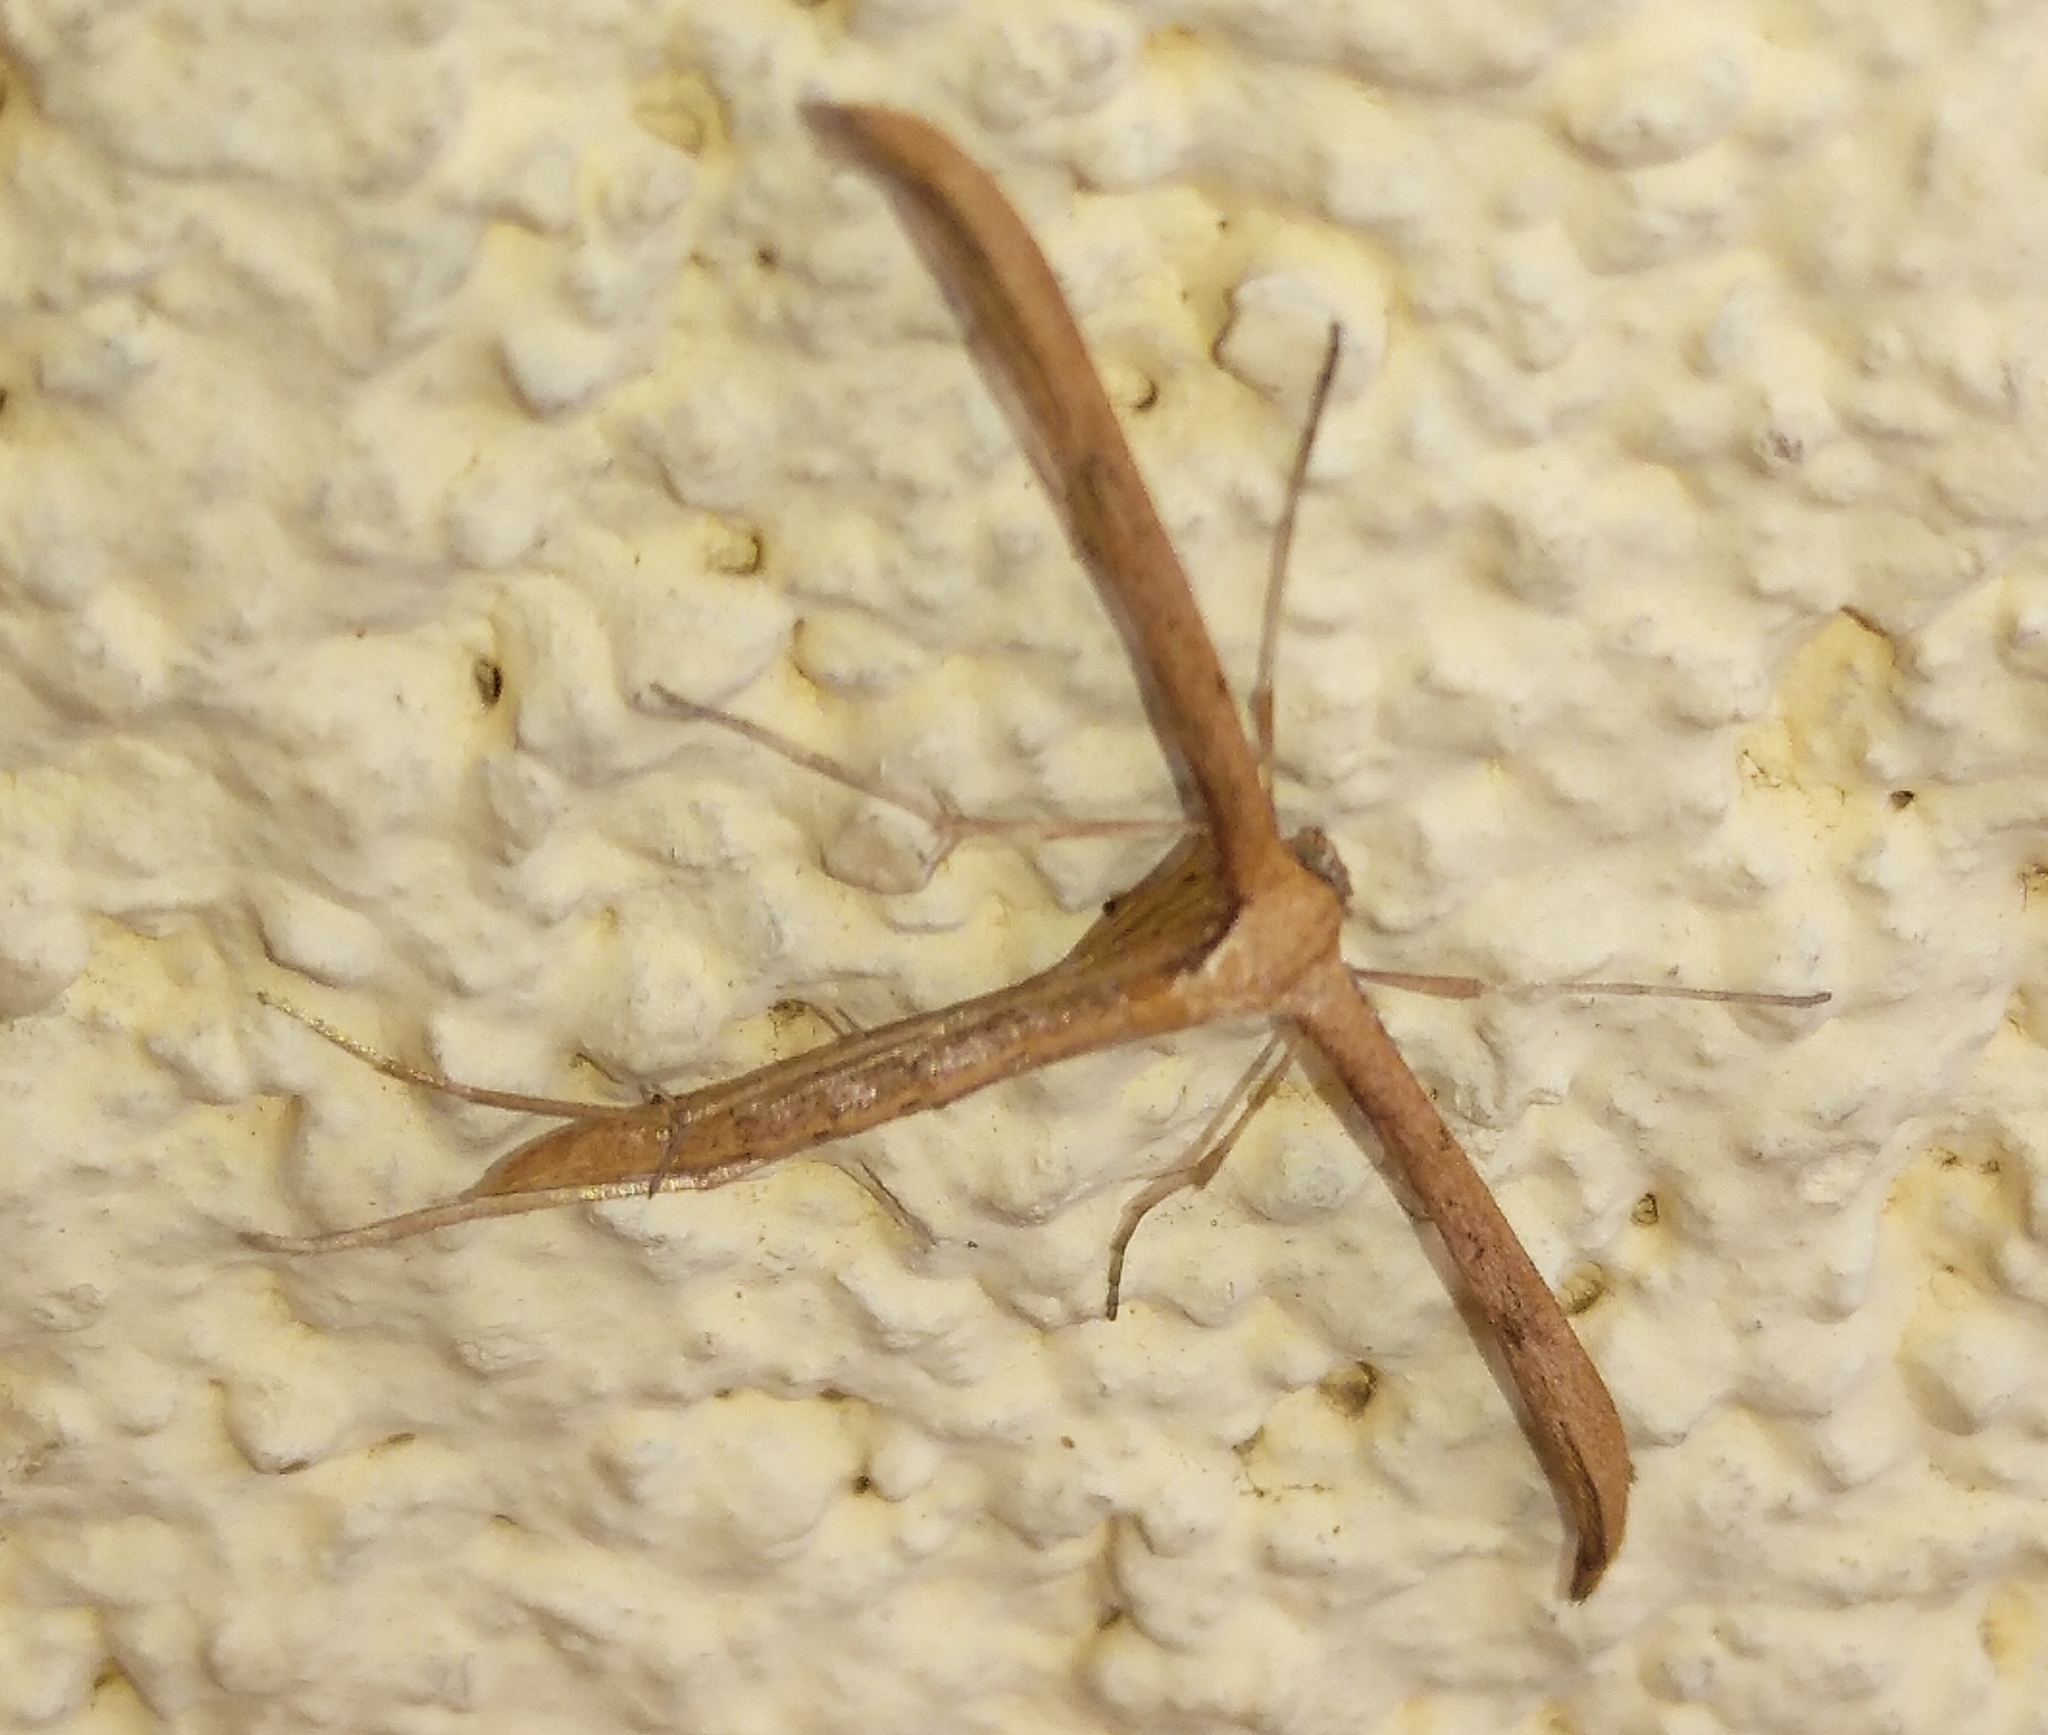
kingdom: Animalia
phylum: Arthropoda
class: Insecta
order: Lepidoptera
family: Pterophoridae
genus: Emmelina
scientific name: Emmelina monodactyla
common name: Common plume
